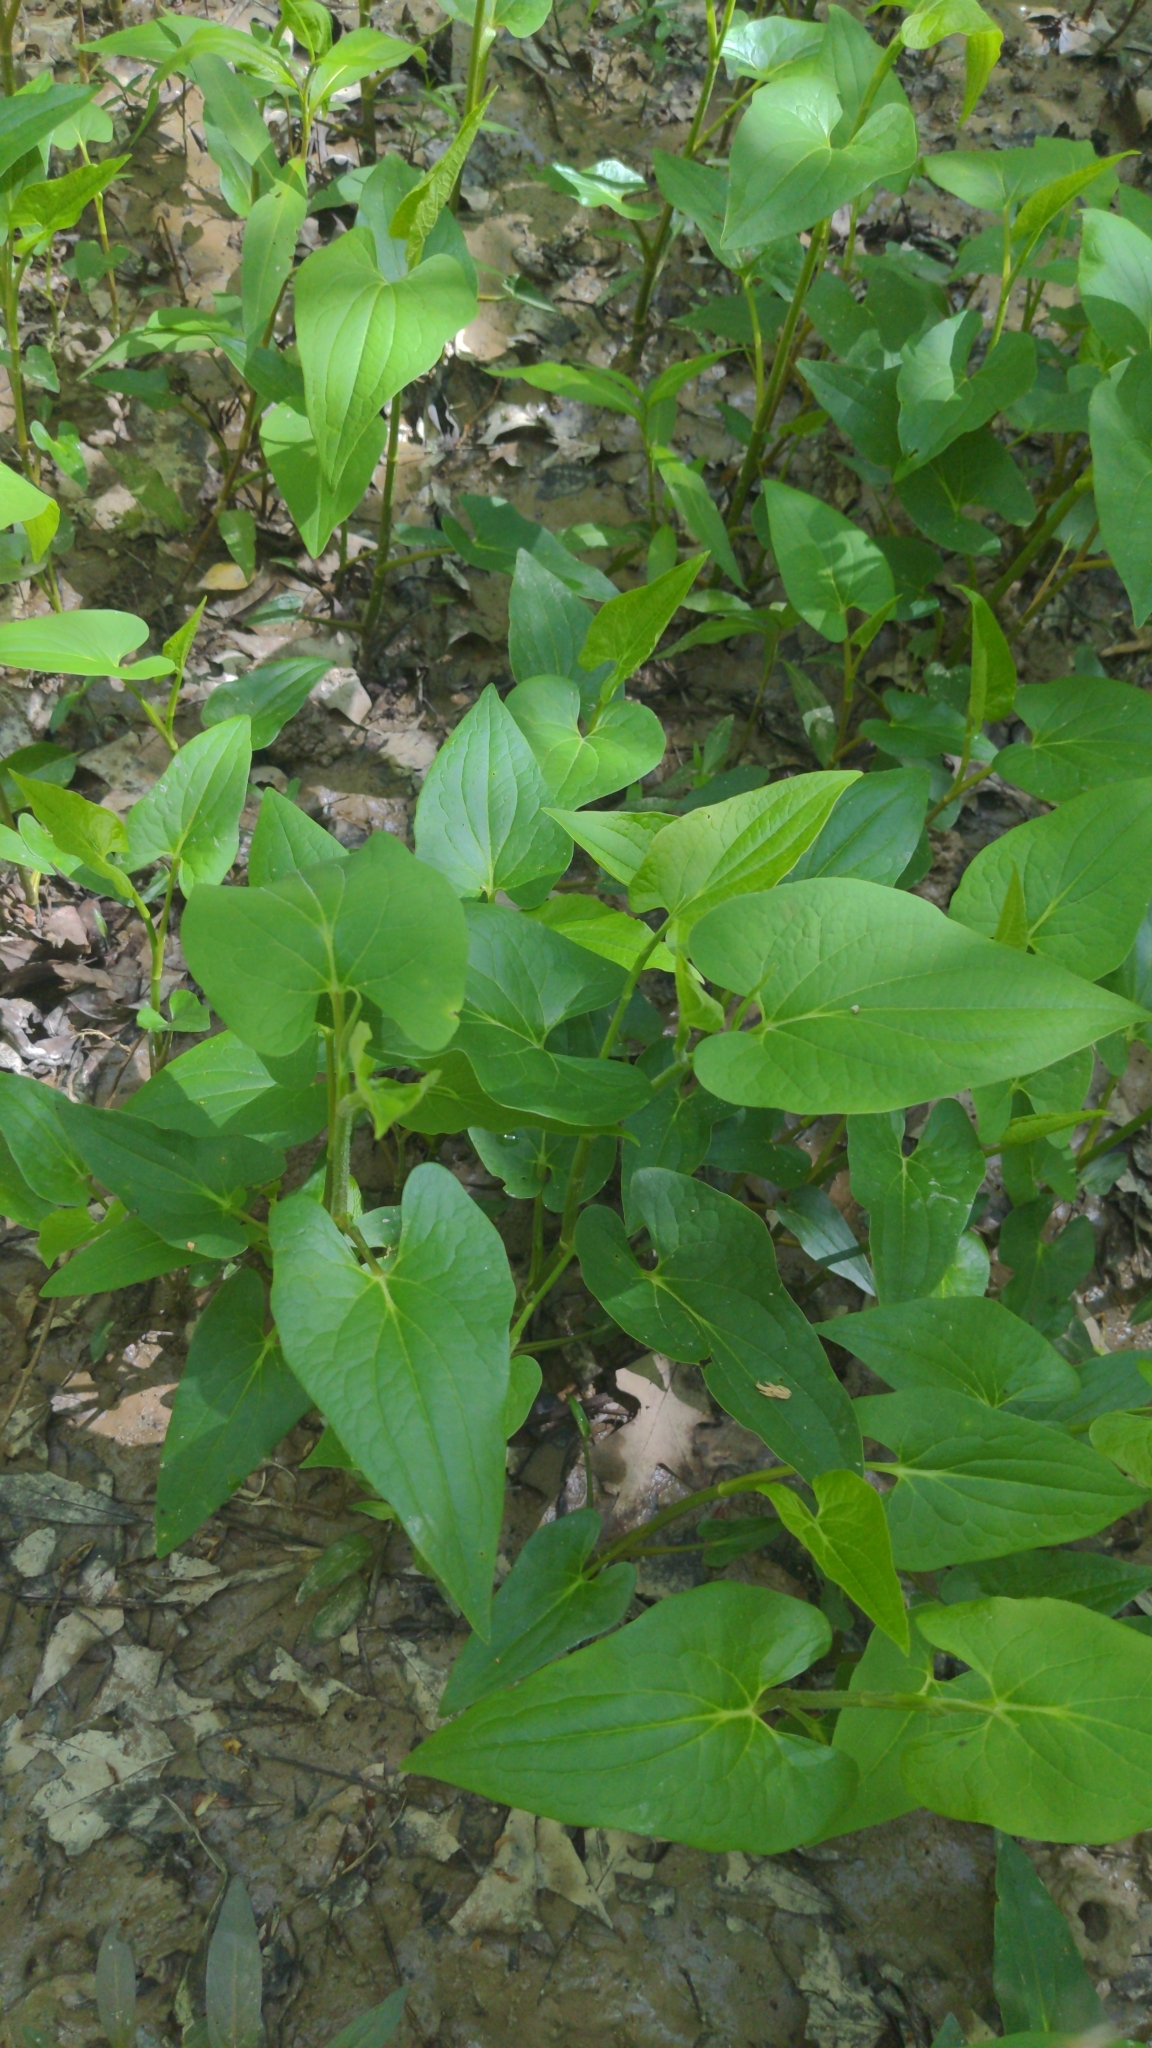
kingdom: Plantae
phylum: Tracheophyta
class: Magnoliopsida
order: Piperales
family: Saururaceae
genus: Saururus
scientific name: Saururus cernuus
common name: Lizard's-tail
